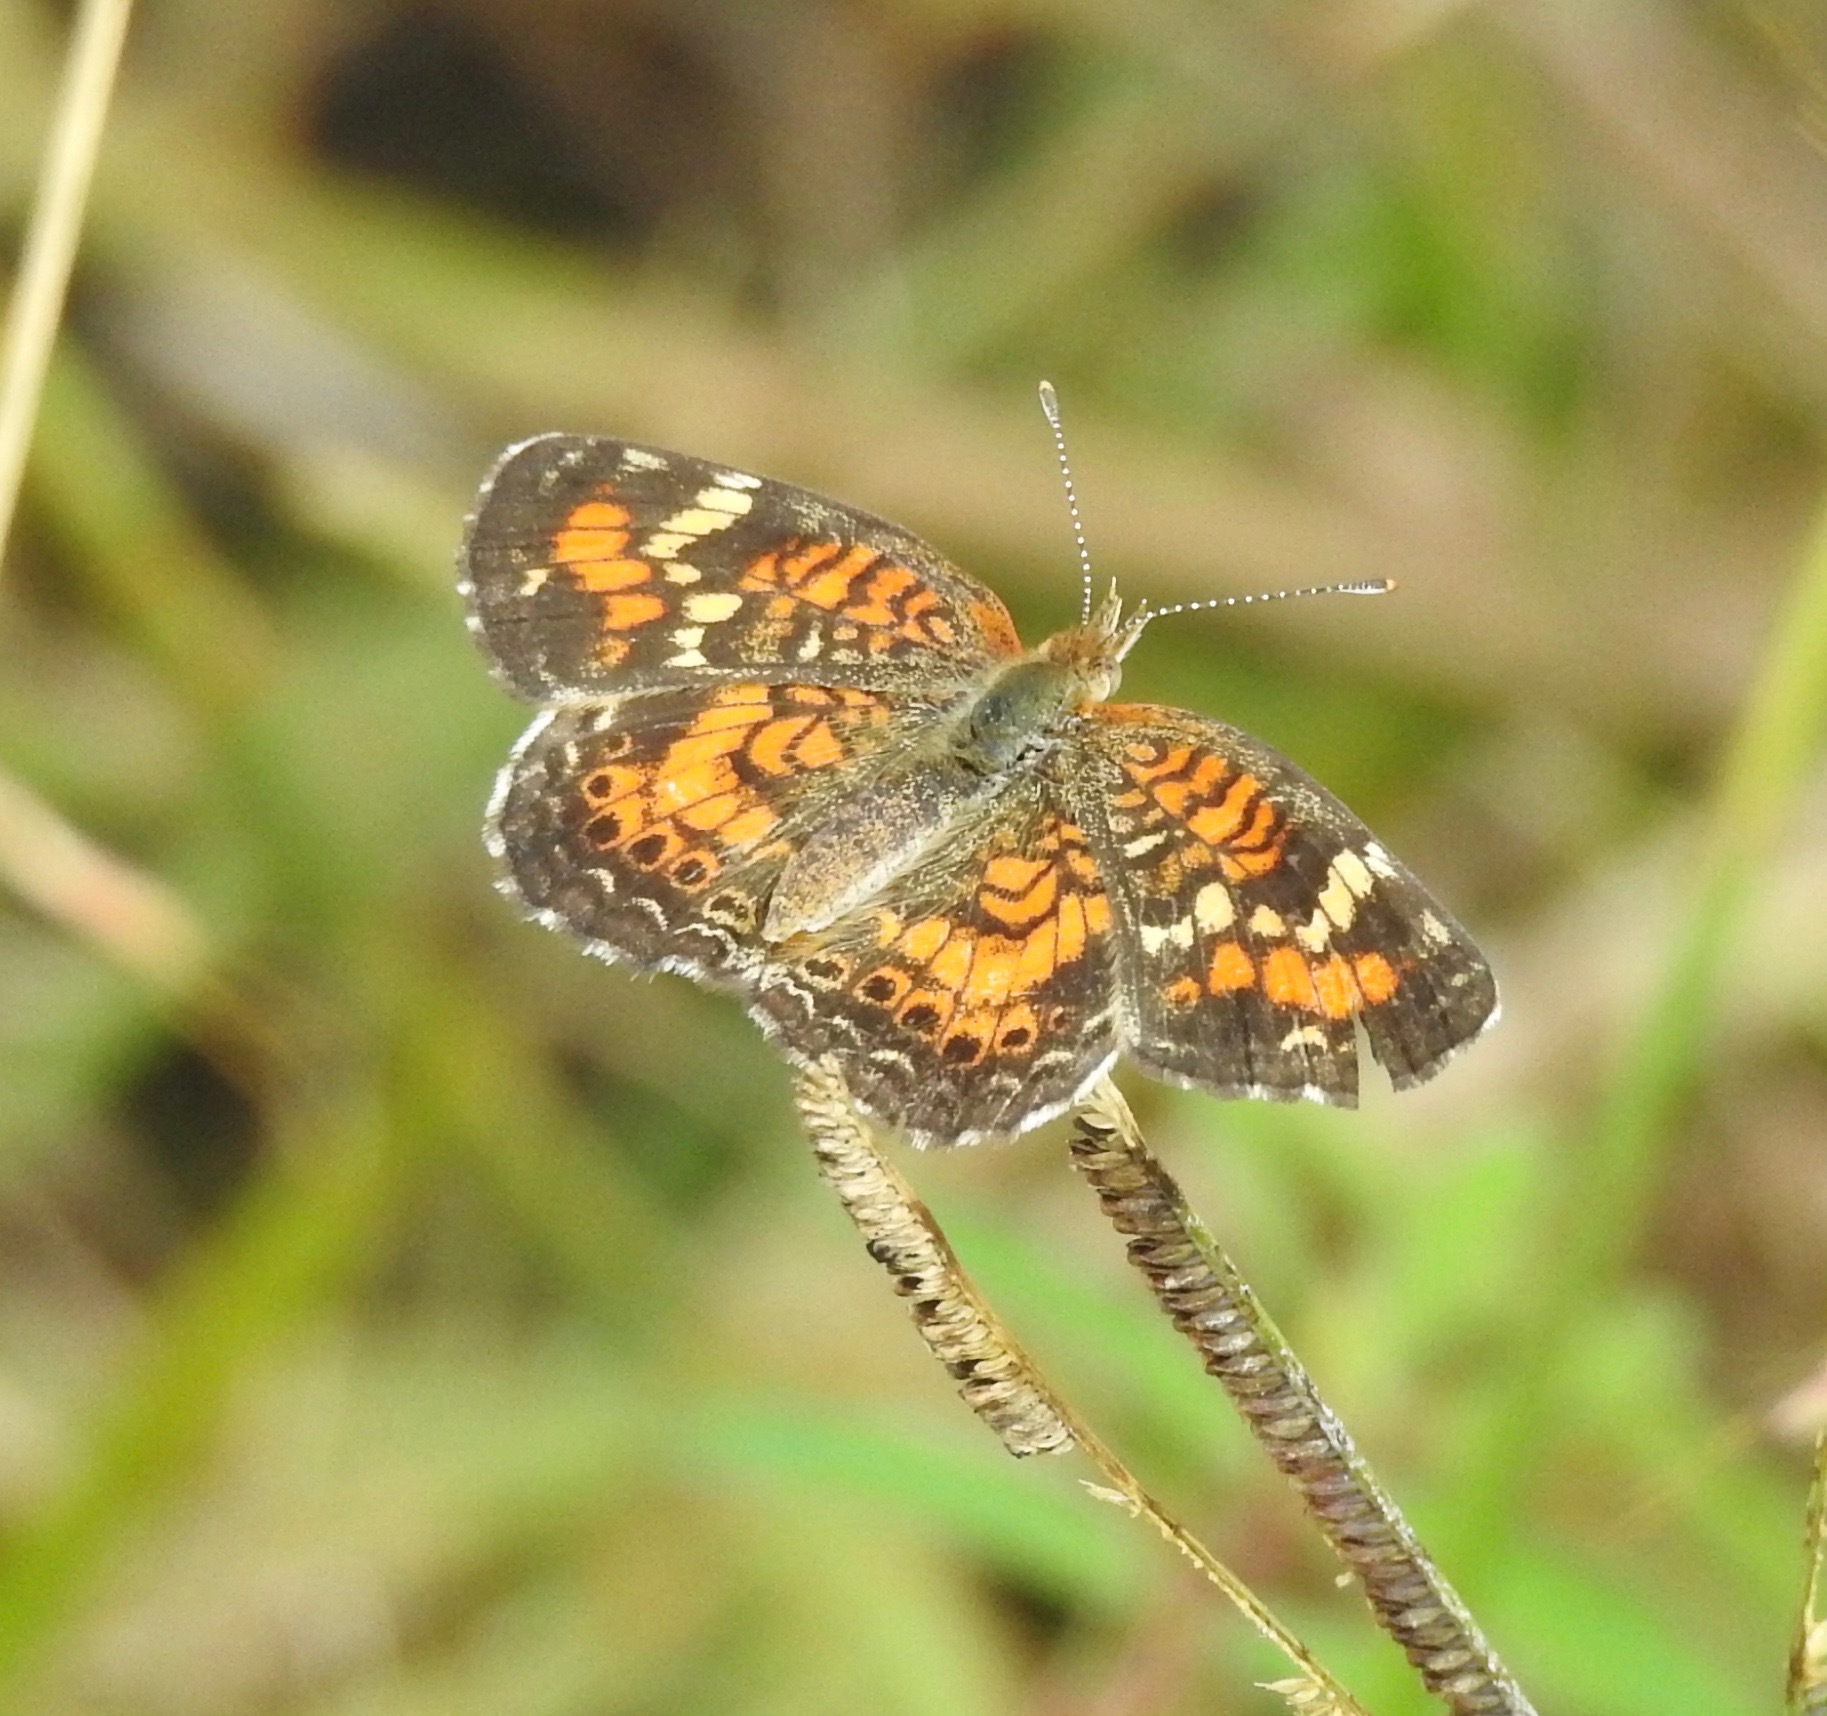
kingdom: Animalia
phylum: Arthropoda
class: Insecta
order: Lepidoptera
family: Nymphalidae
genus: Phyciodes
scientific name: Phyciodes phaon
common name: Phaon crescent
